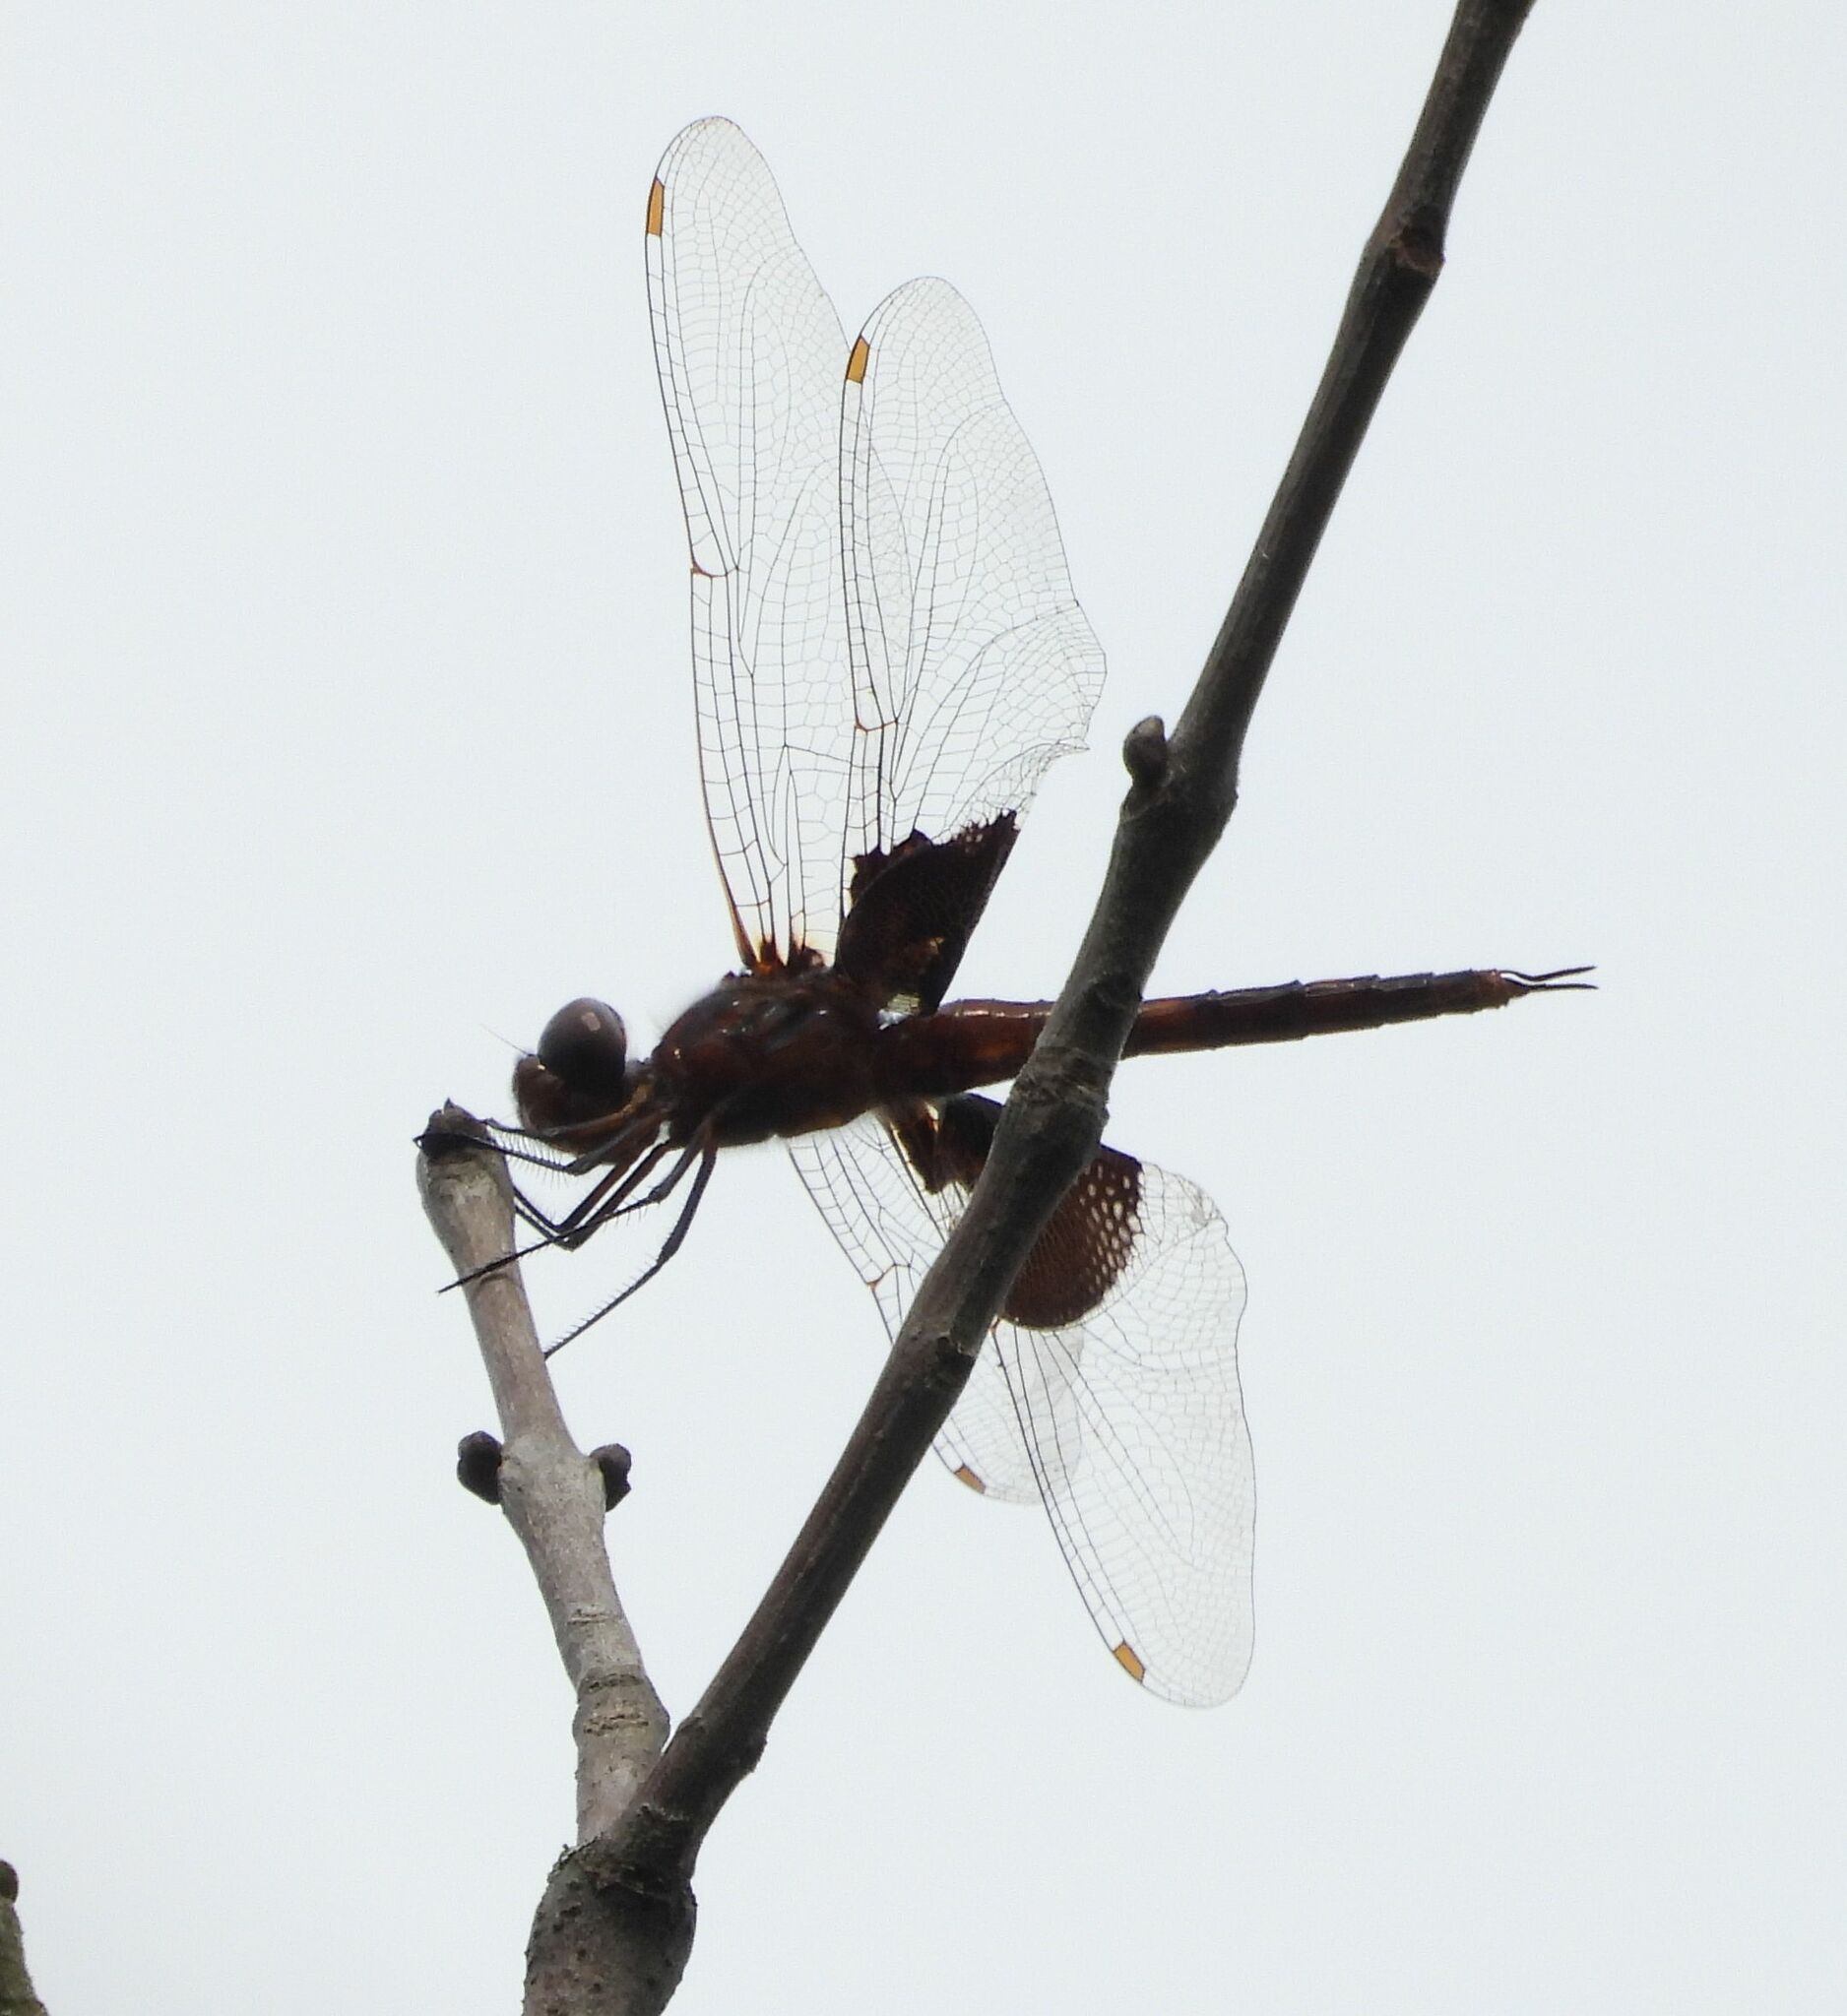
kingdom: Animalia
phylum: Arthropoda
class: Insecta
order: Odonata
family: Libellulidae
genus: Tramea
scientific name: Tramea lacerata
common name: Black saddlebags
